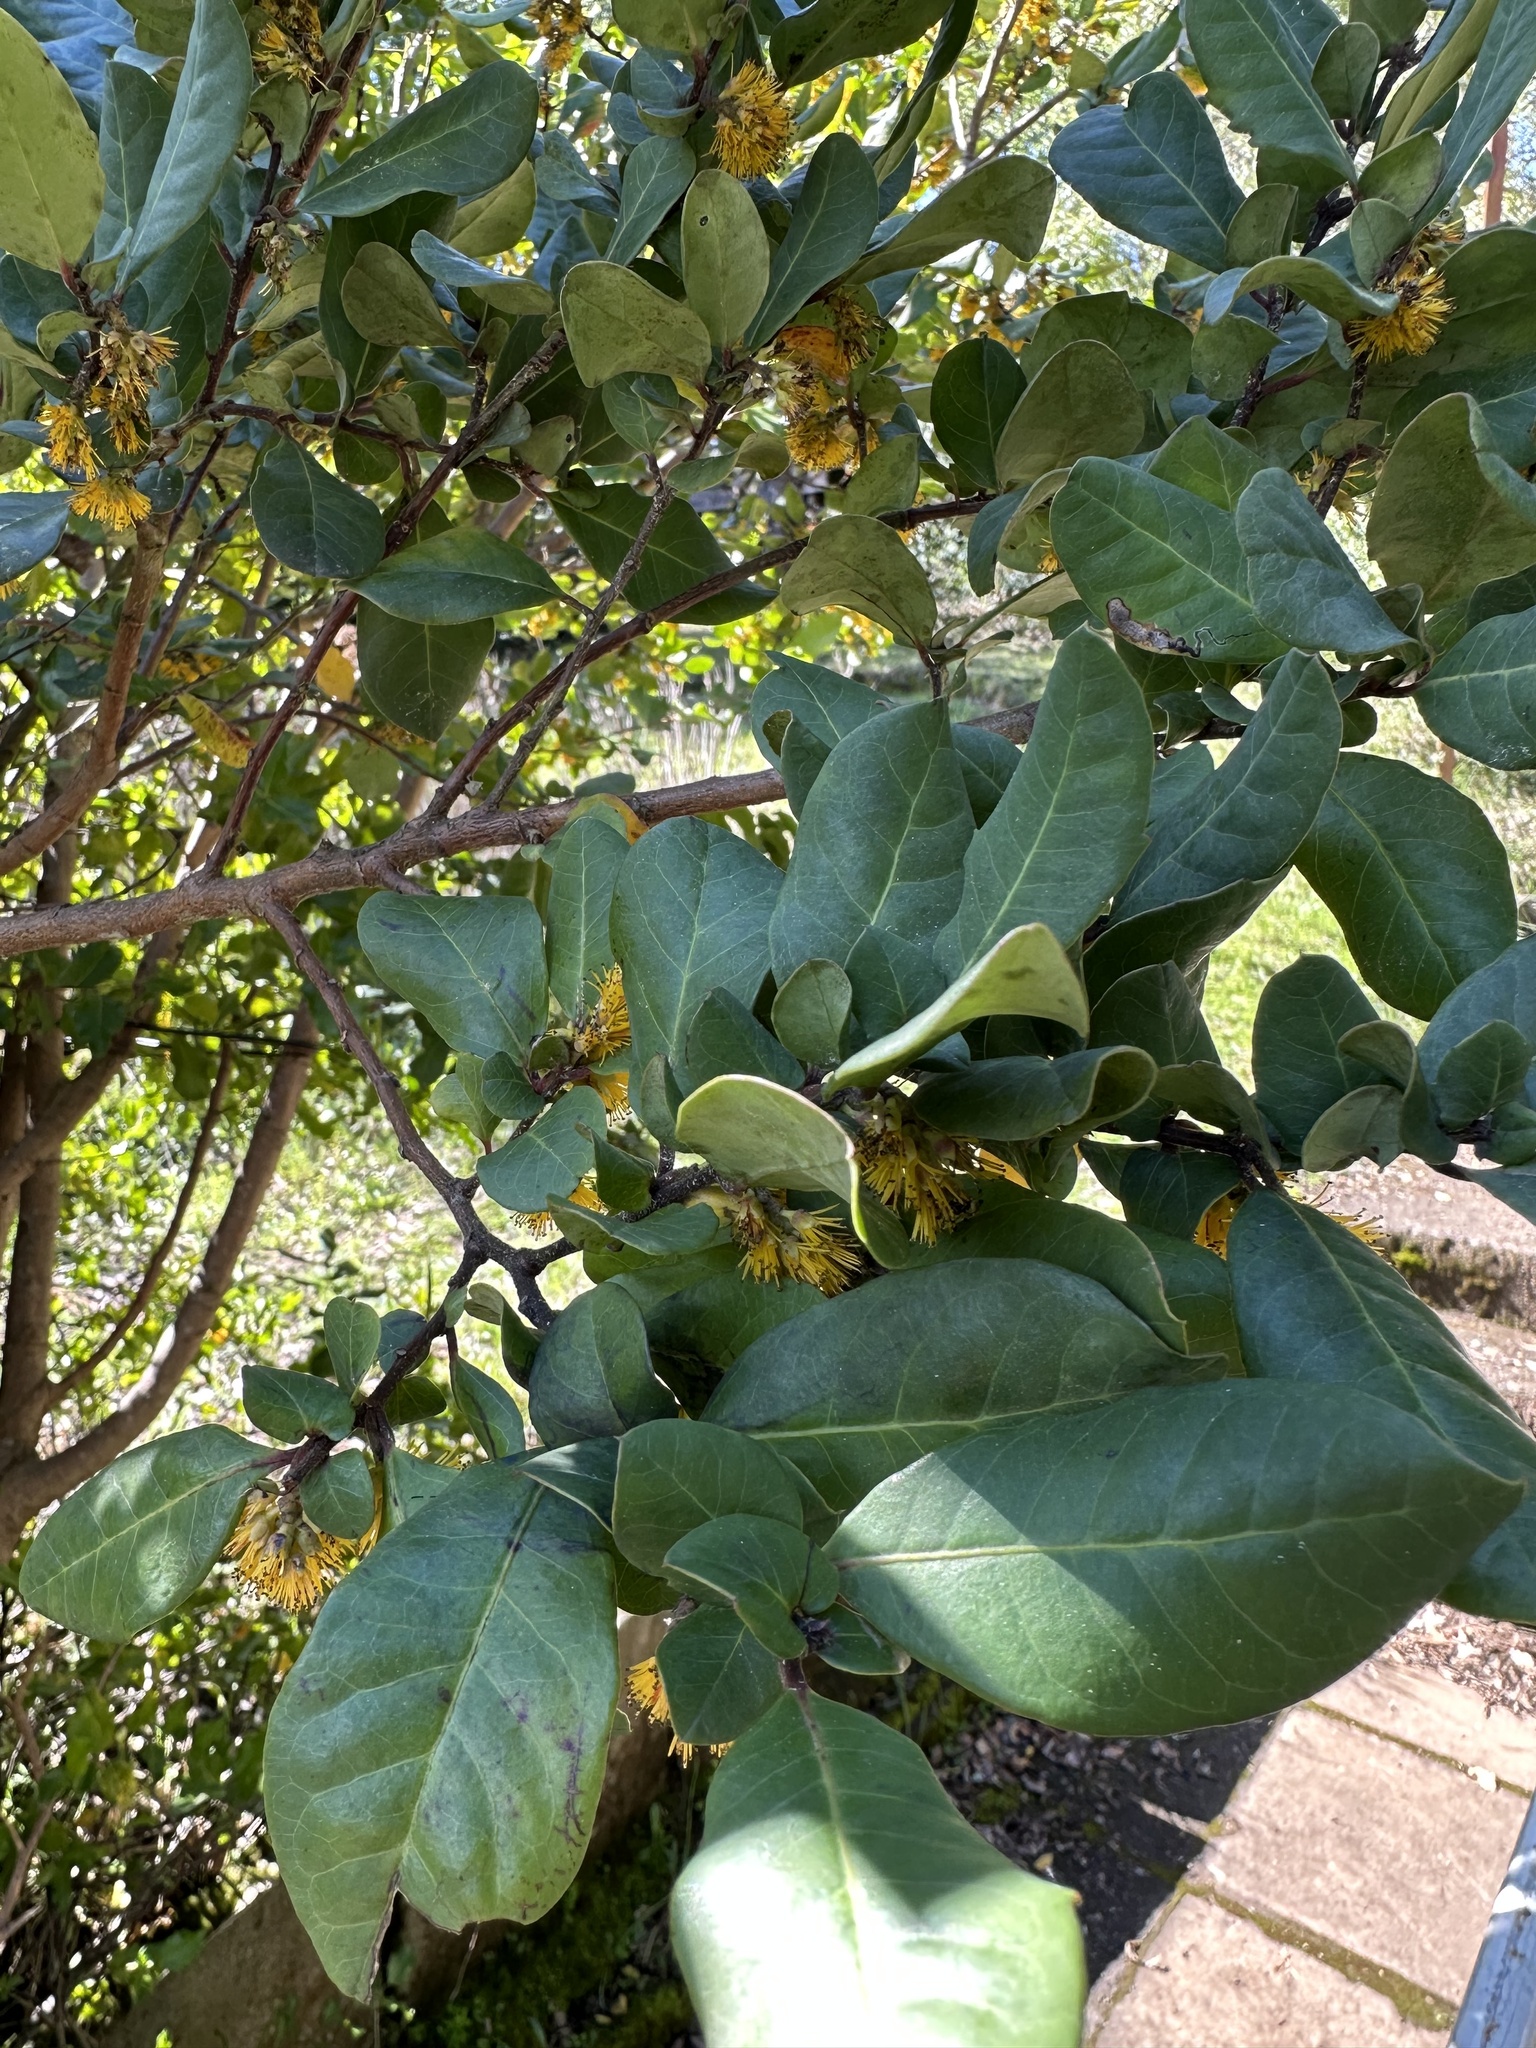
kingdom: Plantae
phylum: Tracheophyta
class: Magnoliopsida
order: Malpighiales
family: Salicaceae
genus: Azara
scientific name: Azara integrifolia
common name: Goldspire
